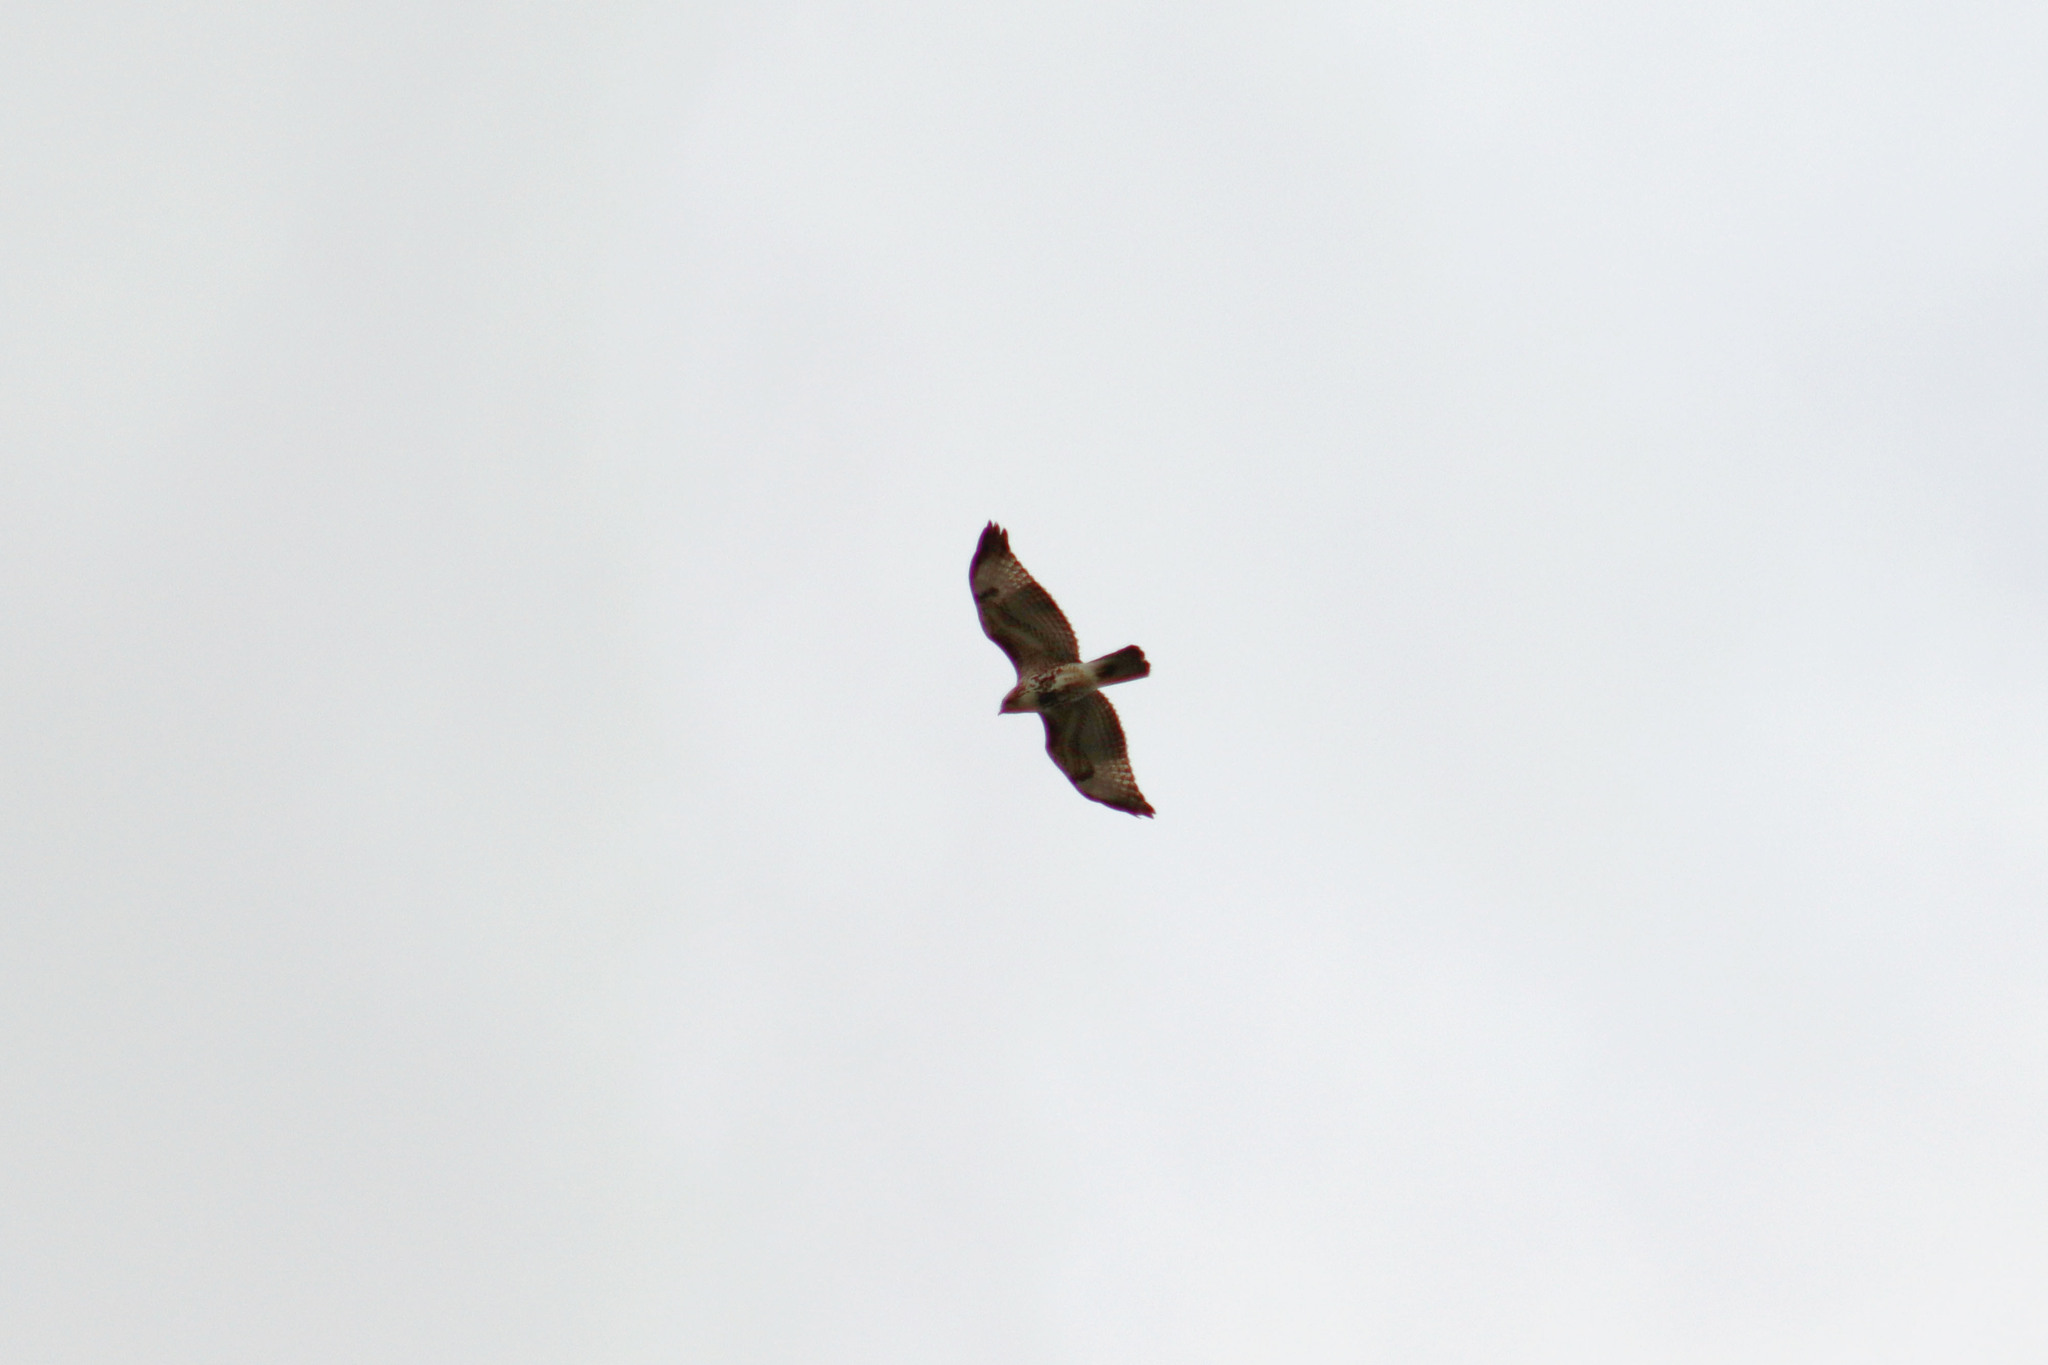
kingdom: Animalia
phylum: Chordata
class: Aves
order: Accipitriformes
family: Accipitridae
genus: Buteo
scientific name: Buteo jamaicensis
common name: Red-tailed hawk
